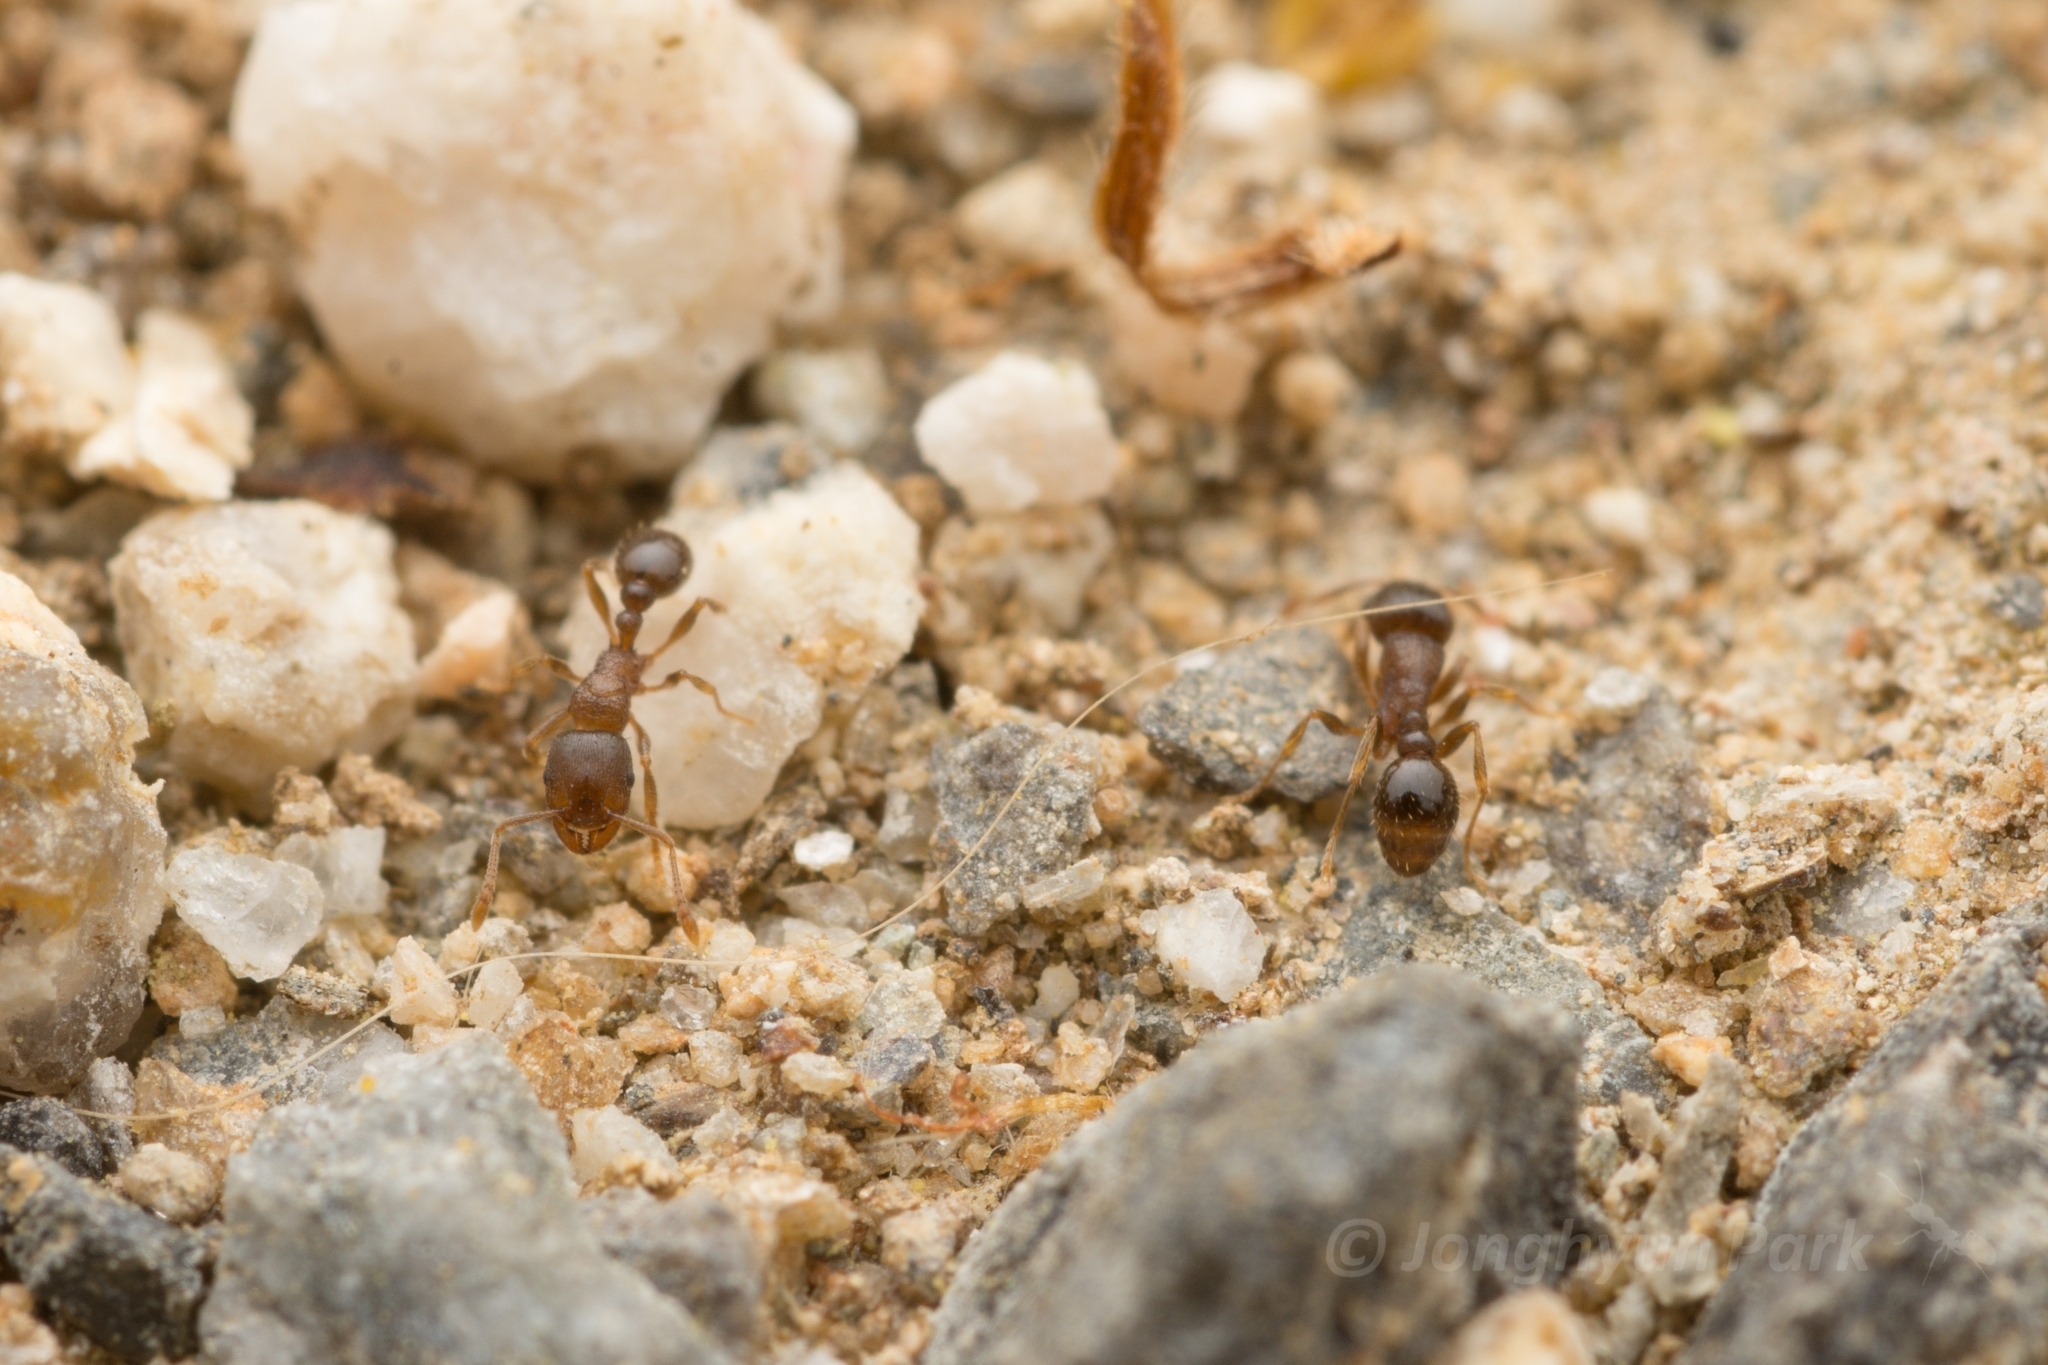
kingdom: Animalia
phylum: Arthropoda
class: Insecta
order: Hymenoptera
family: Formicidae
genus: Tetramorium
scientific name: Tetramorium tsushimae
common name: Ant
